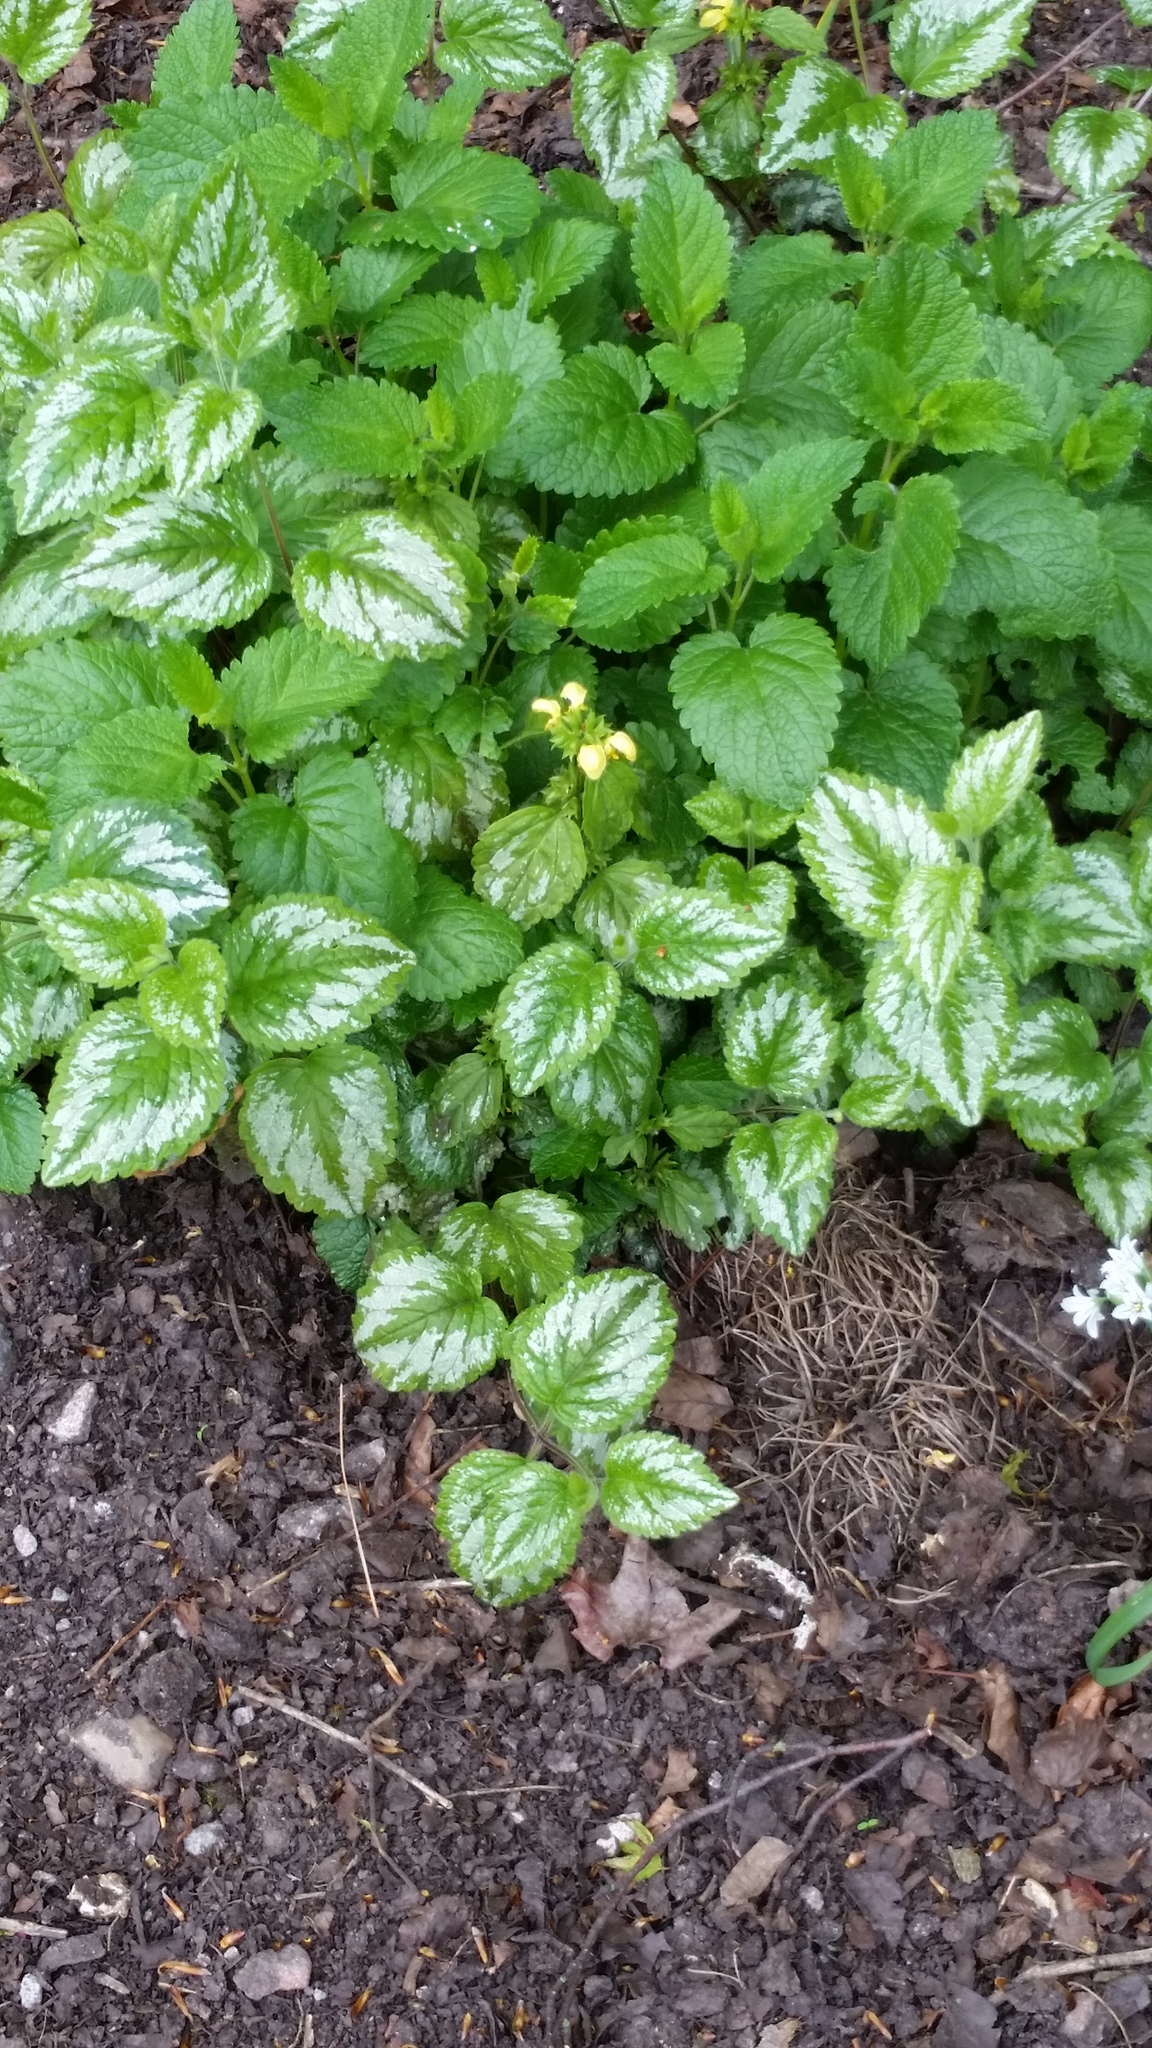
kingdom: Plantae
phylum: Tracheophyta
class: Magnoliopsida
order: Lamiales
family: Lamiaceae
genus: Lamium
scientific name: Lamium galeobdolon
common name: Yellow archangel
